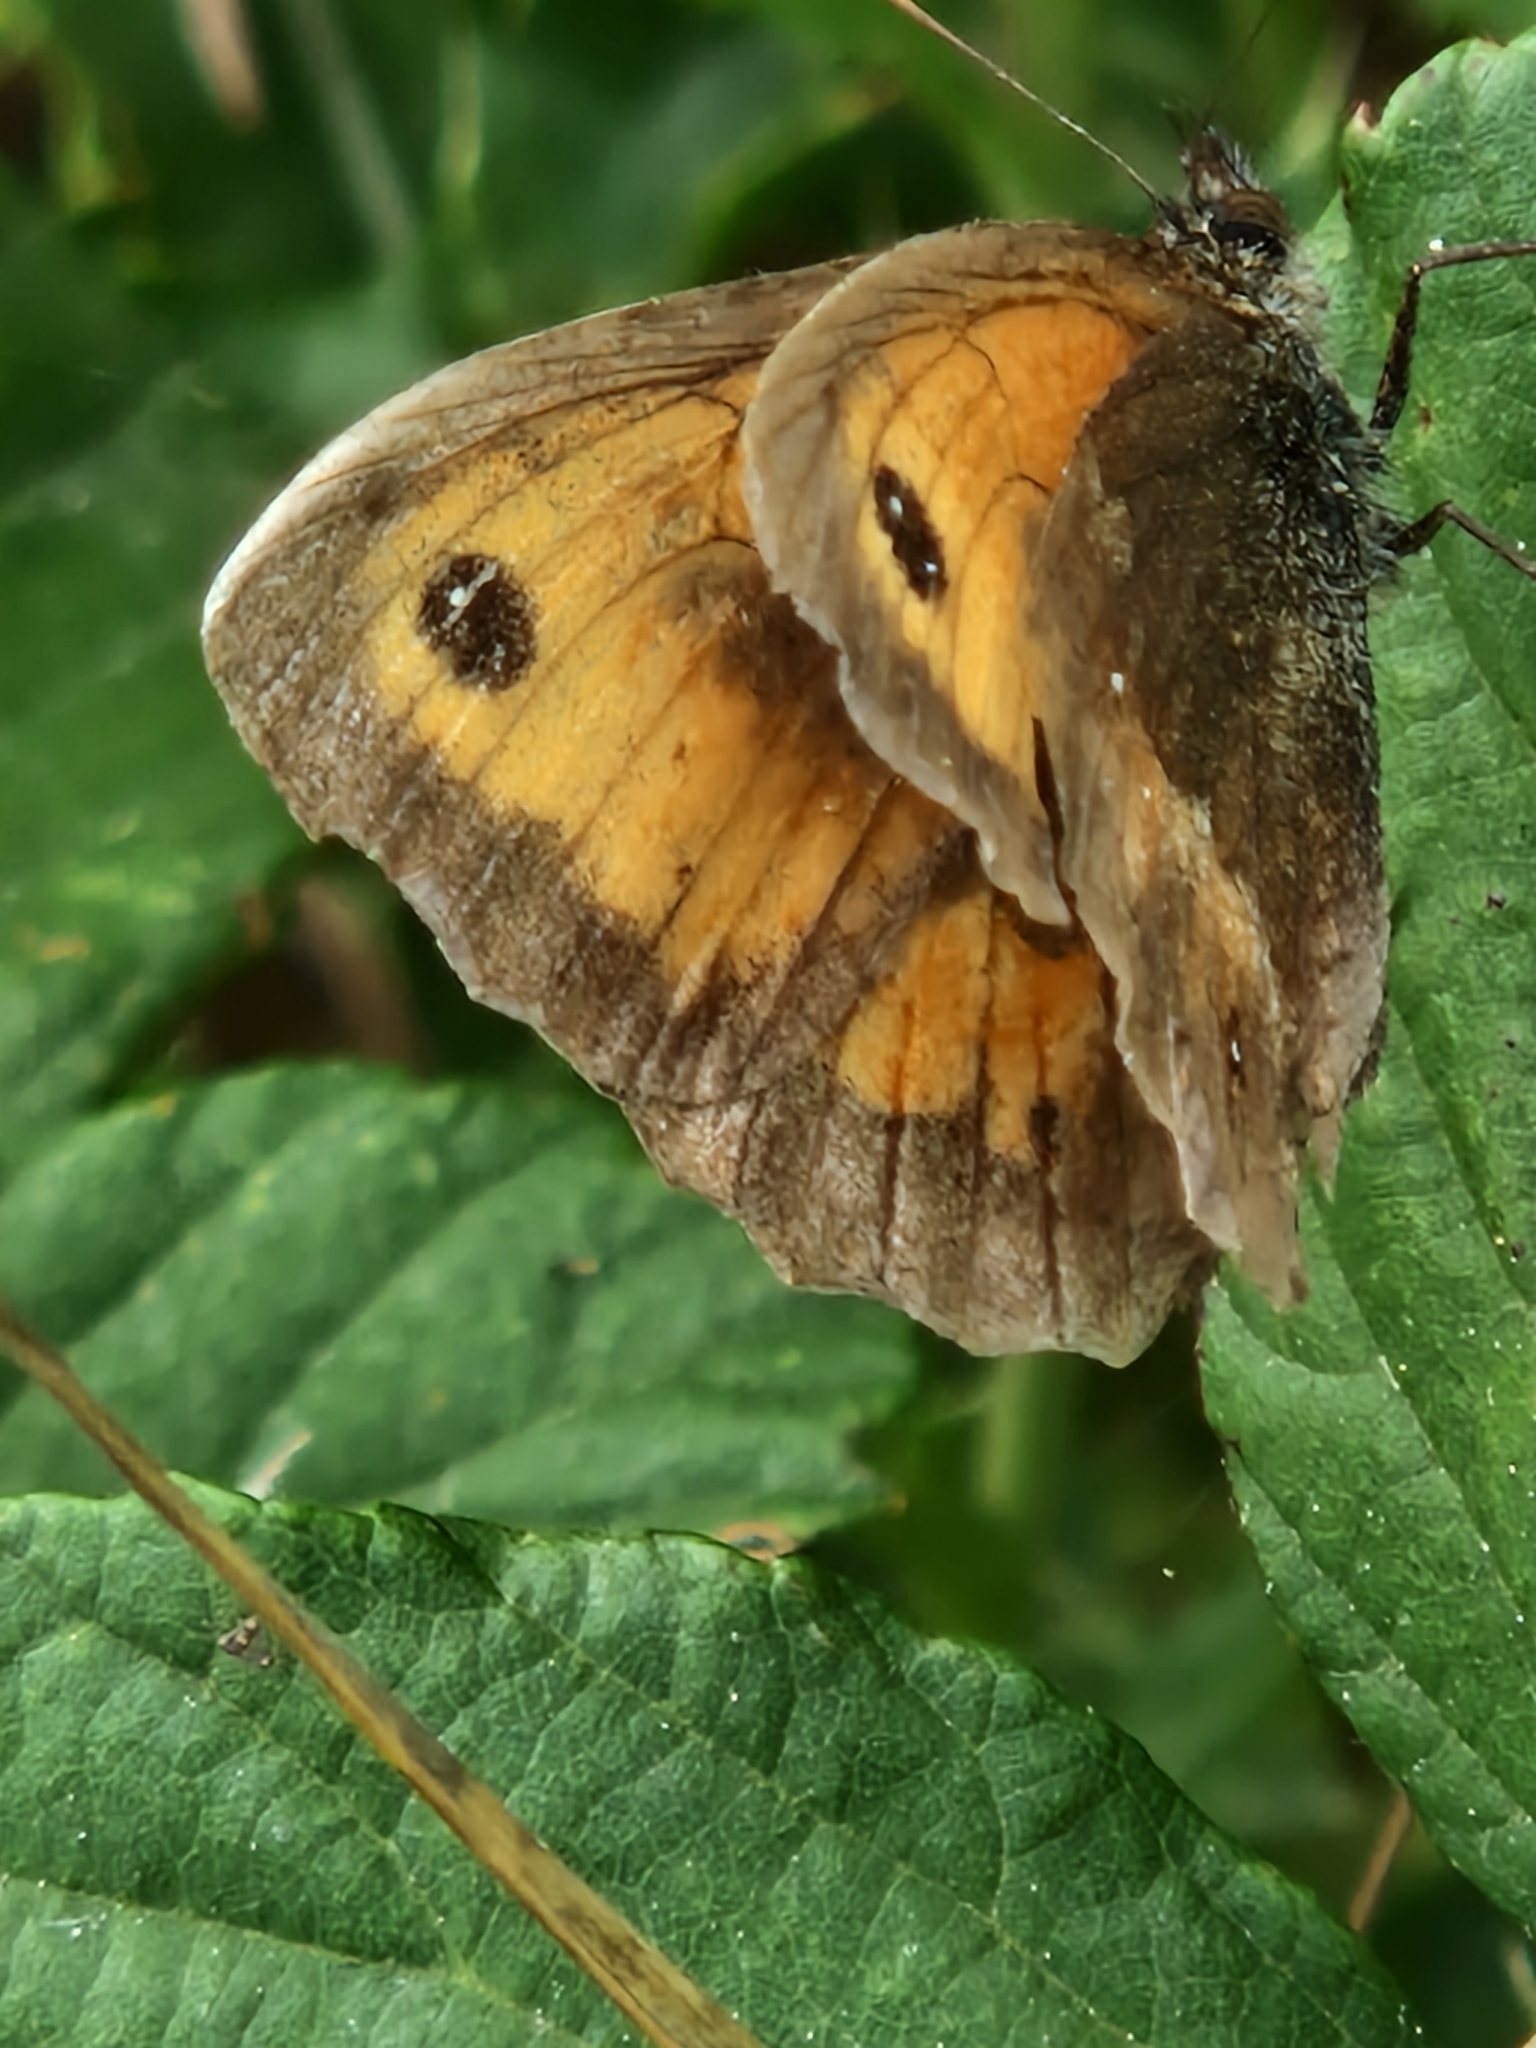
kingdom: Animalia
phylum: Arthropoda
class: Insecta
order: Lepidoptera
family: Nymphalidae
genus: Pyronia
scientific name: Pyronia tithonus
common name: Gatekeeper
